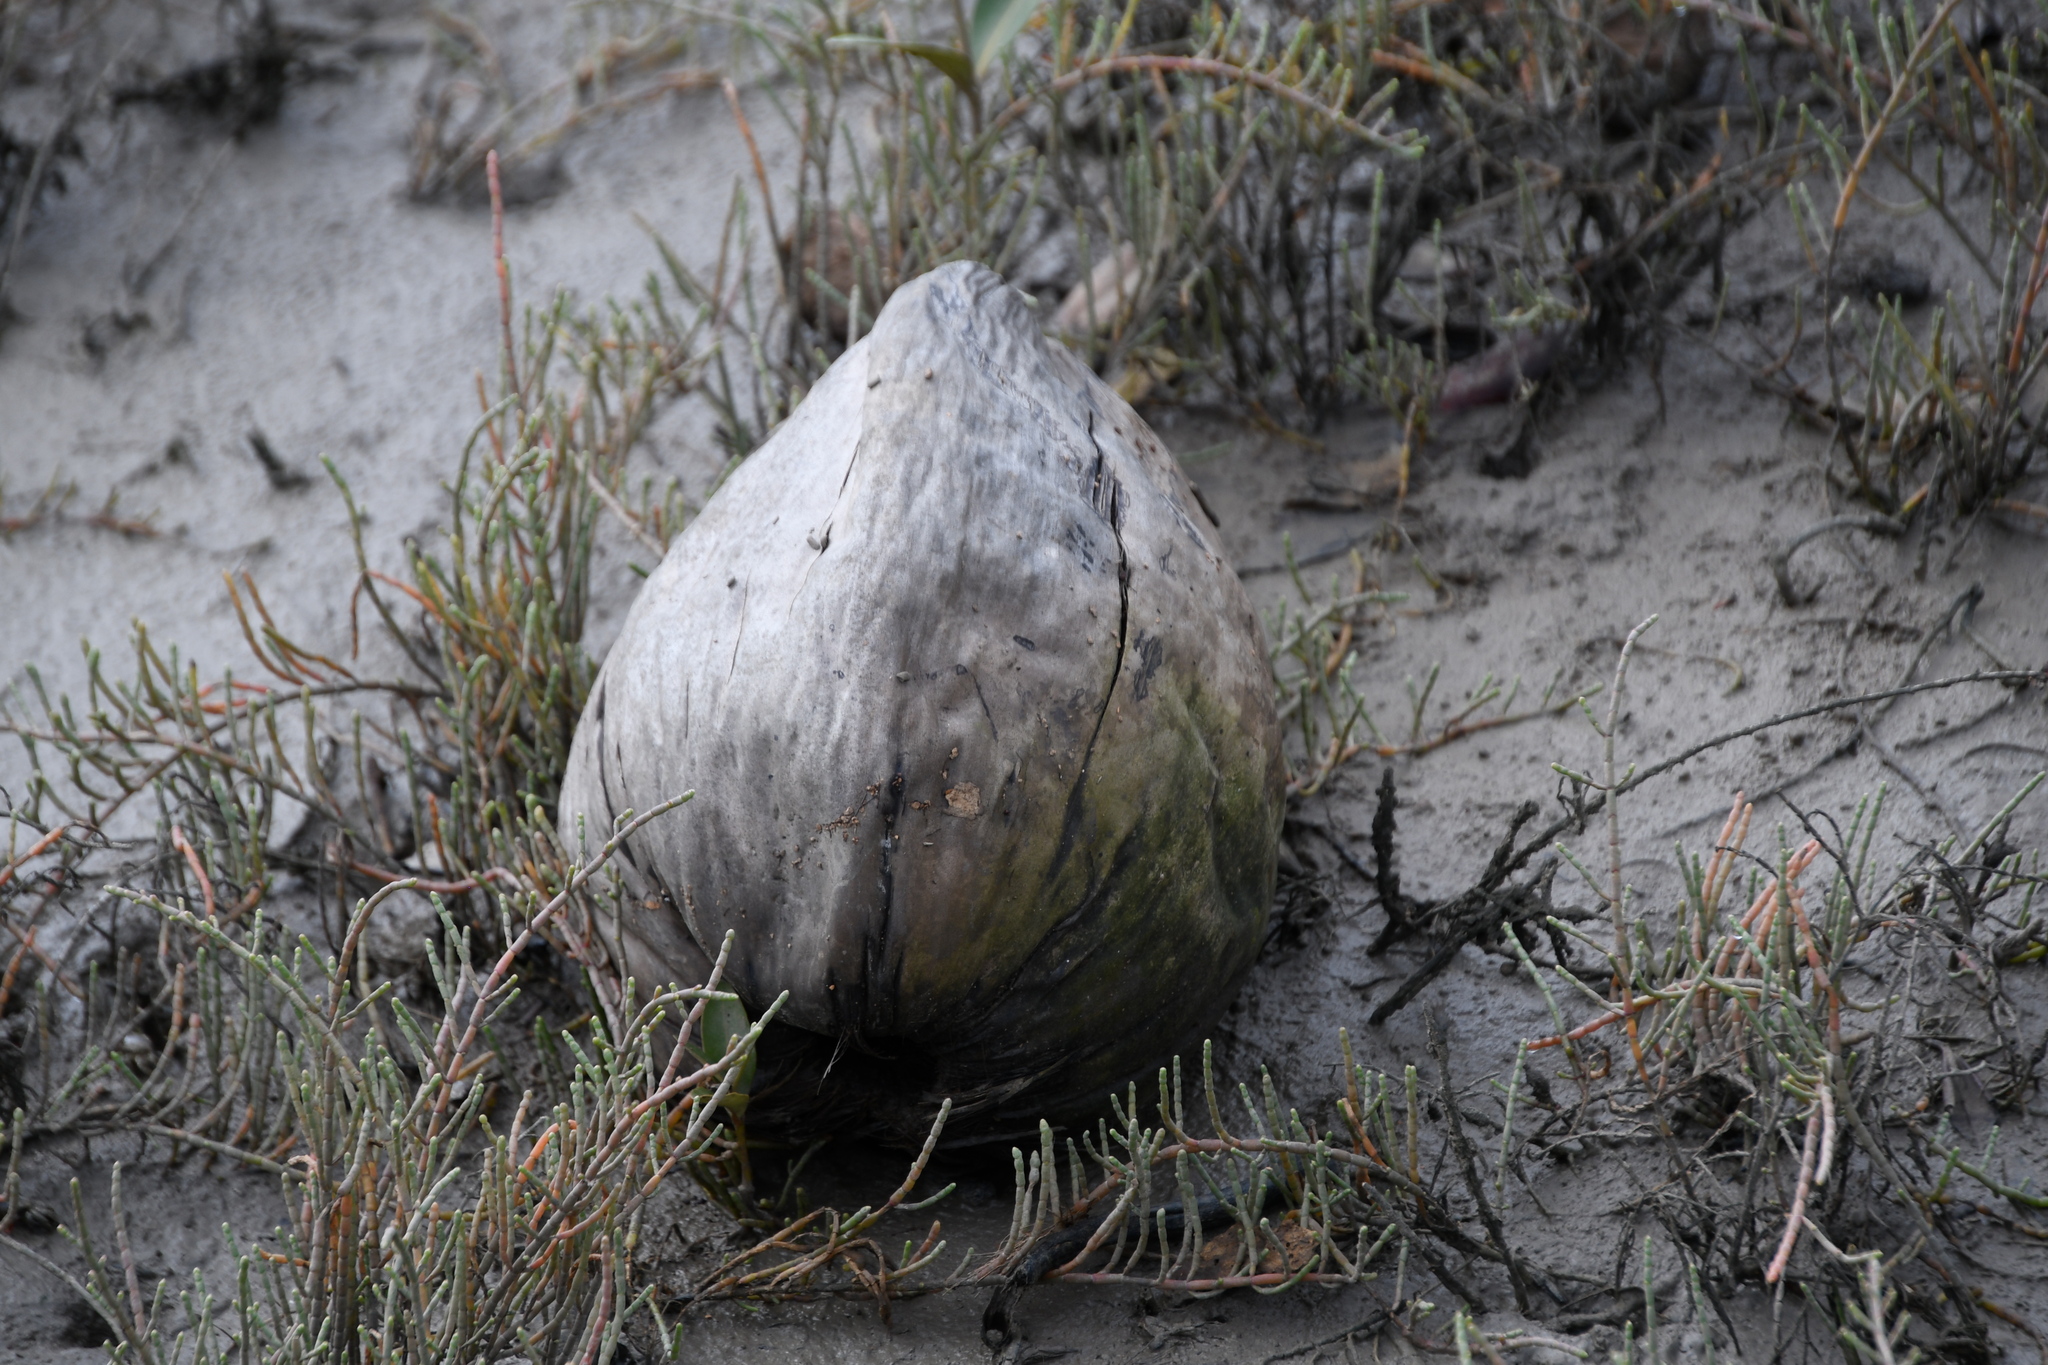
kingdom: Plantae
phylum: Tracheophyta
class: Liliopsida
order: Arecales
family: Arecaceae
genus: Cocos
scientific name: Cocos nucifera
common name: Coconut palm
